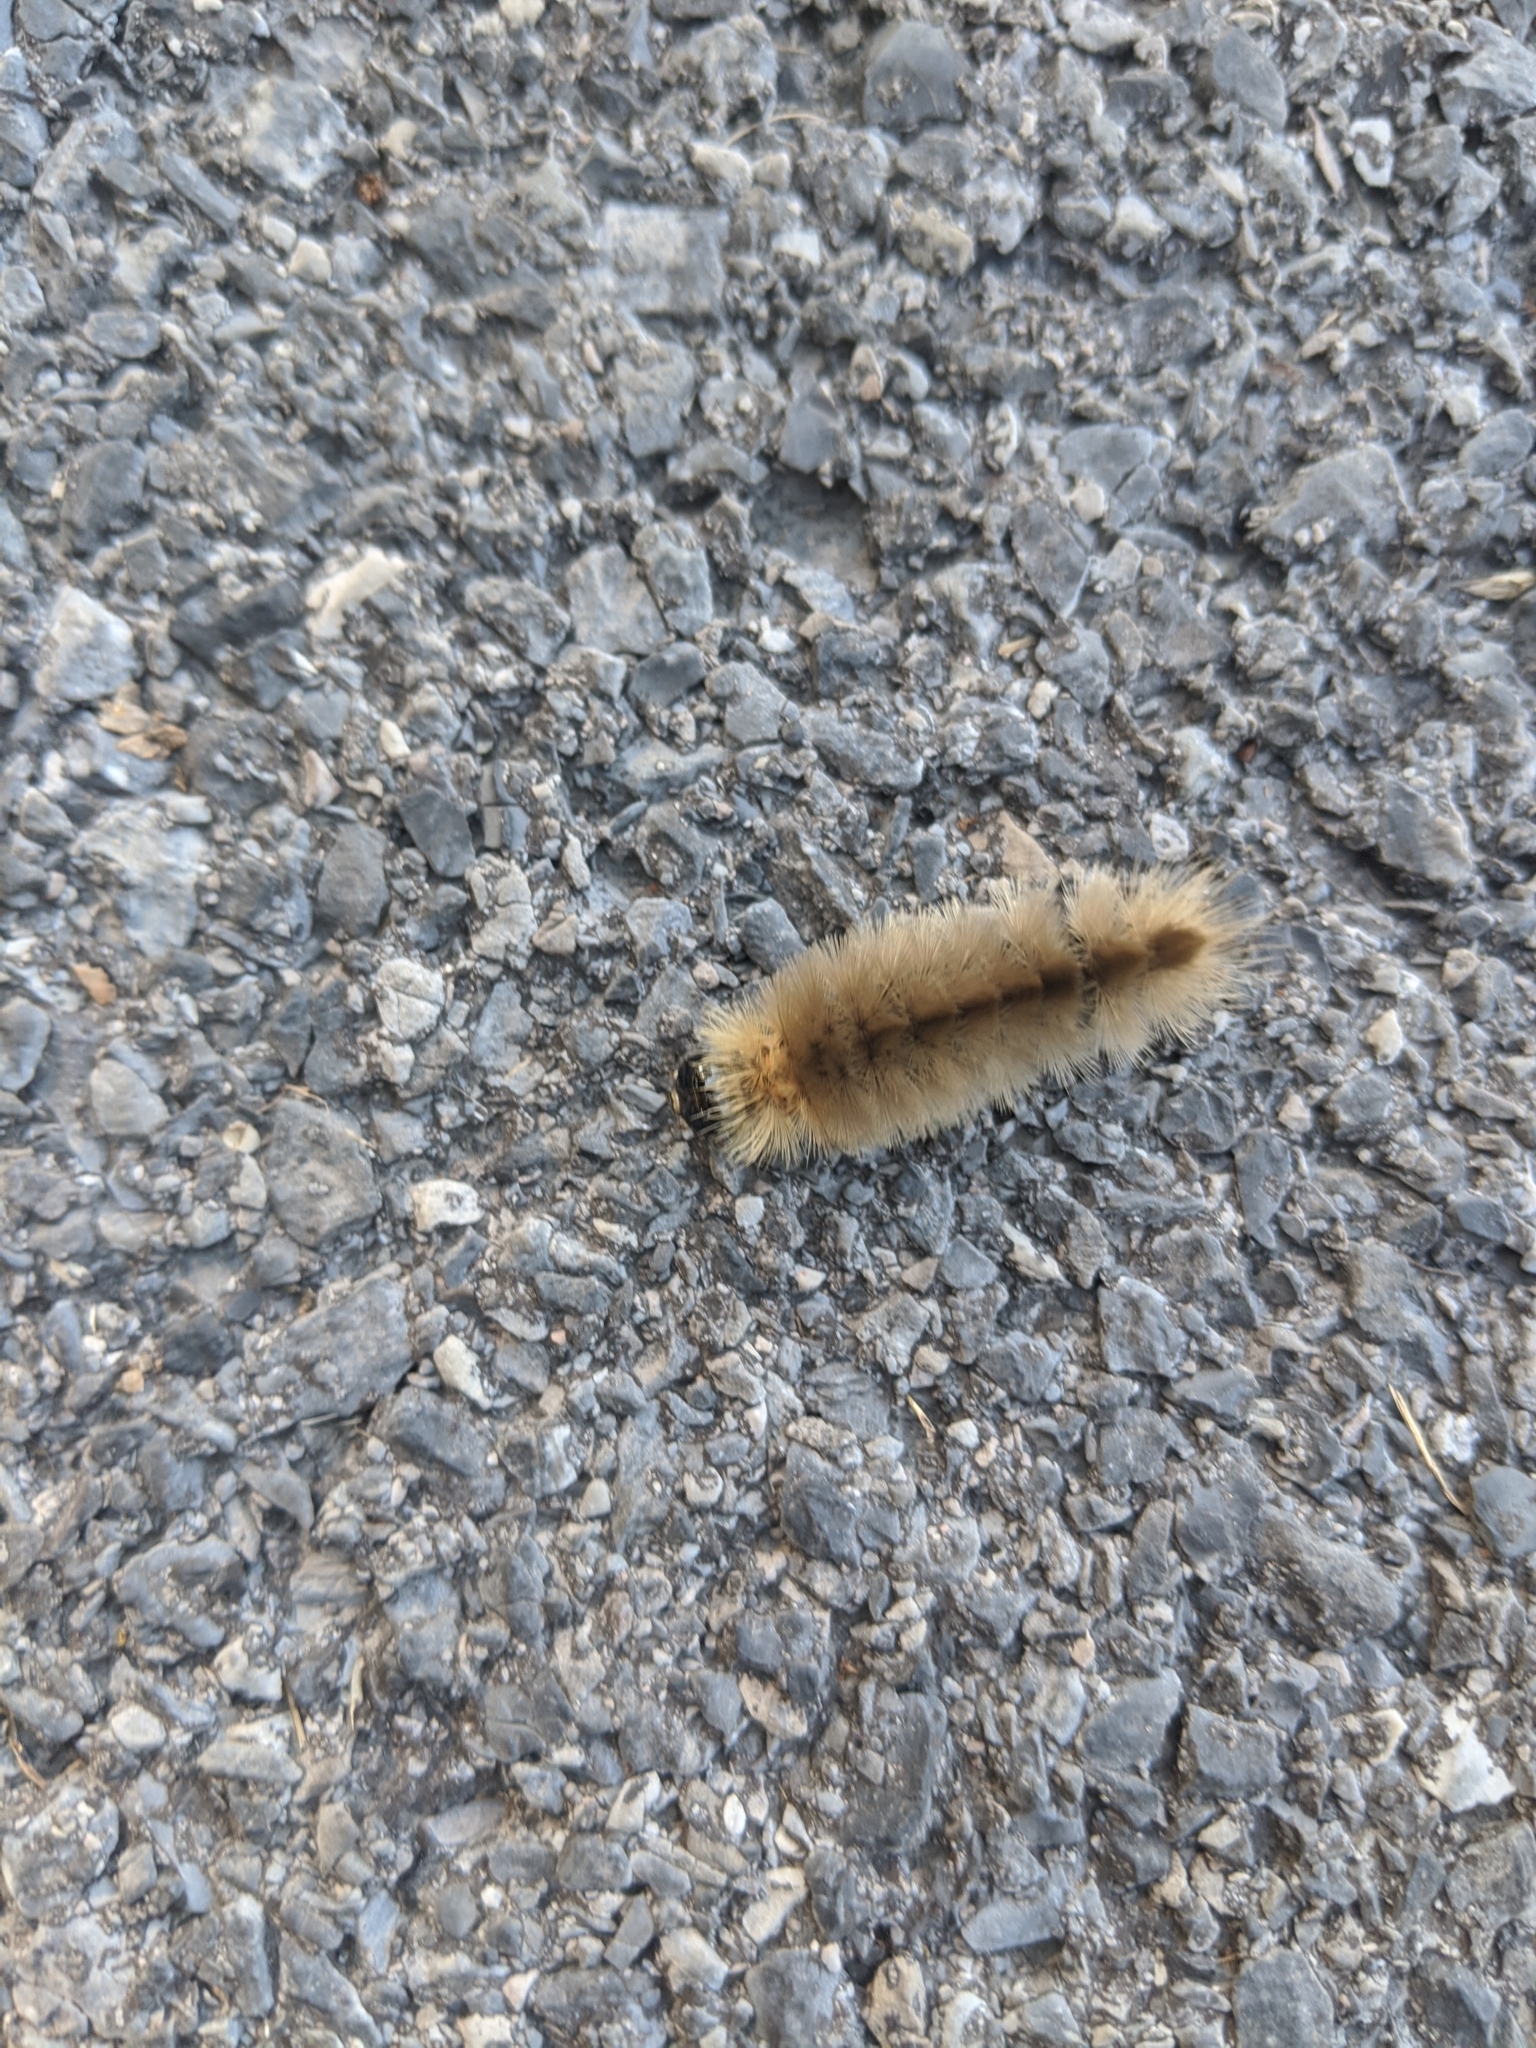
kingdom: Animalia
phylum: Arthropoda
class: Insecta
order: Lepidoptera
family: Erebidae
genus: Halysidota
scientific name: Halysidota tessellaris
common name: Banded tussock moth
